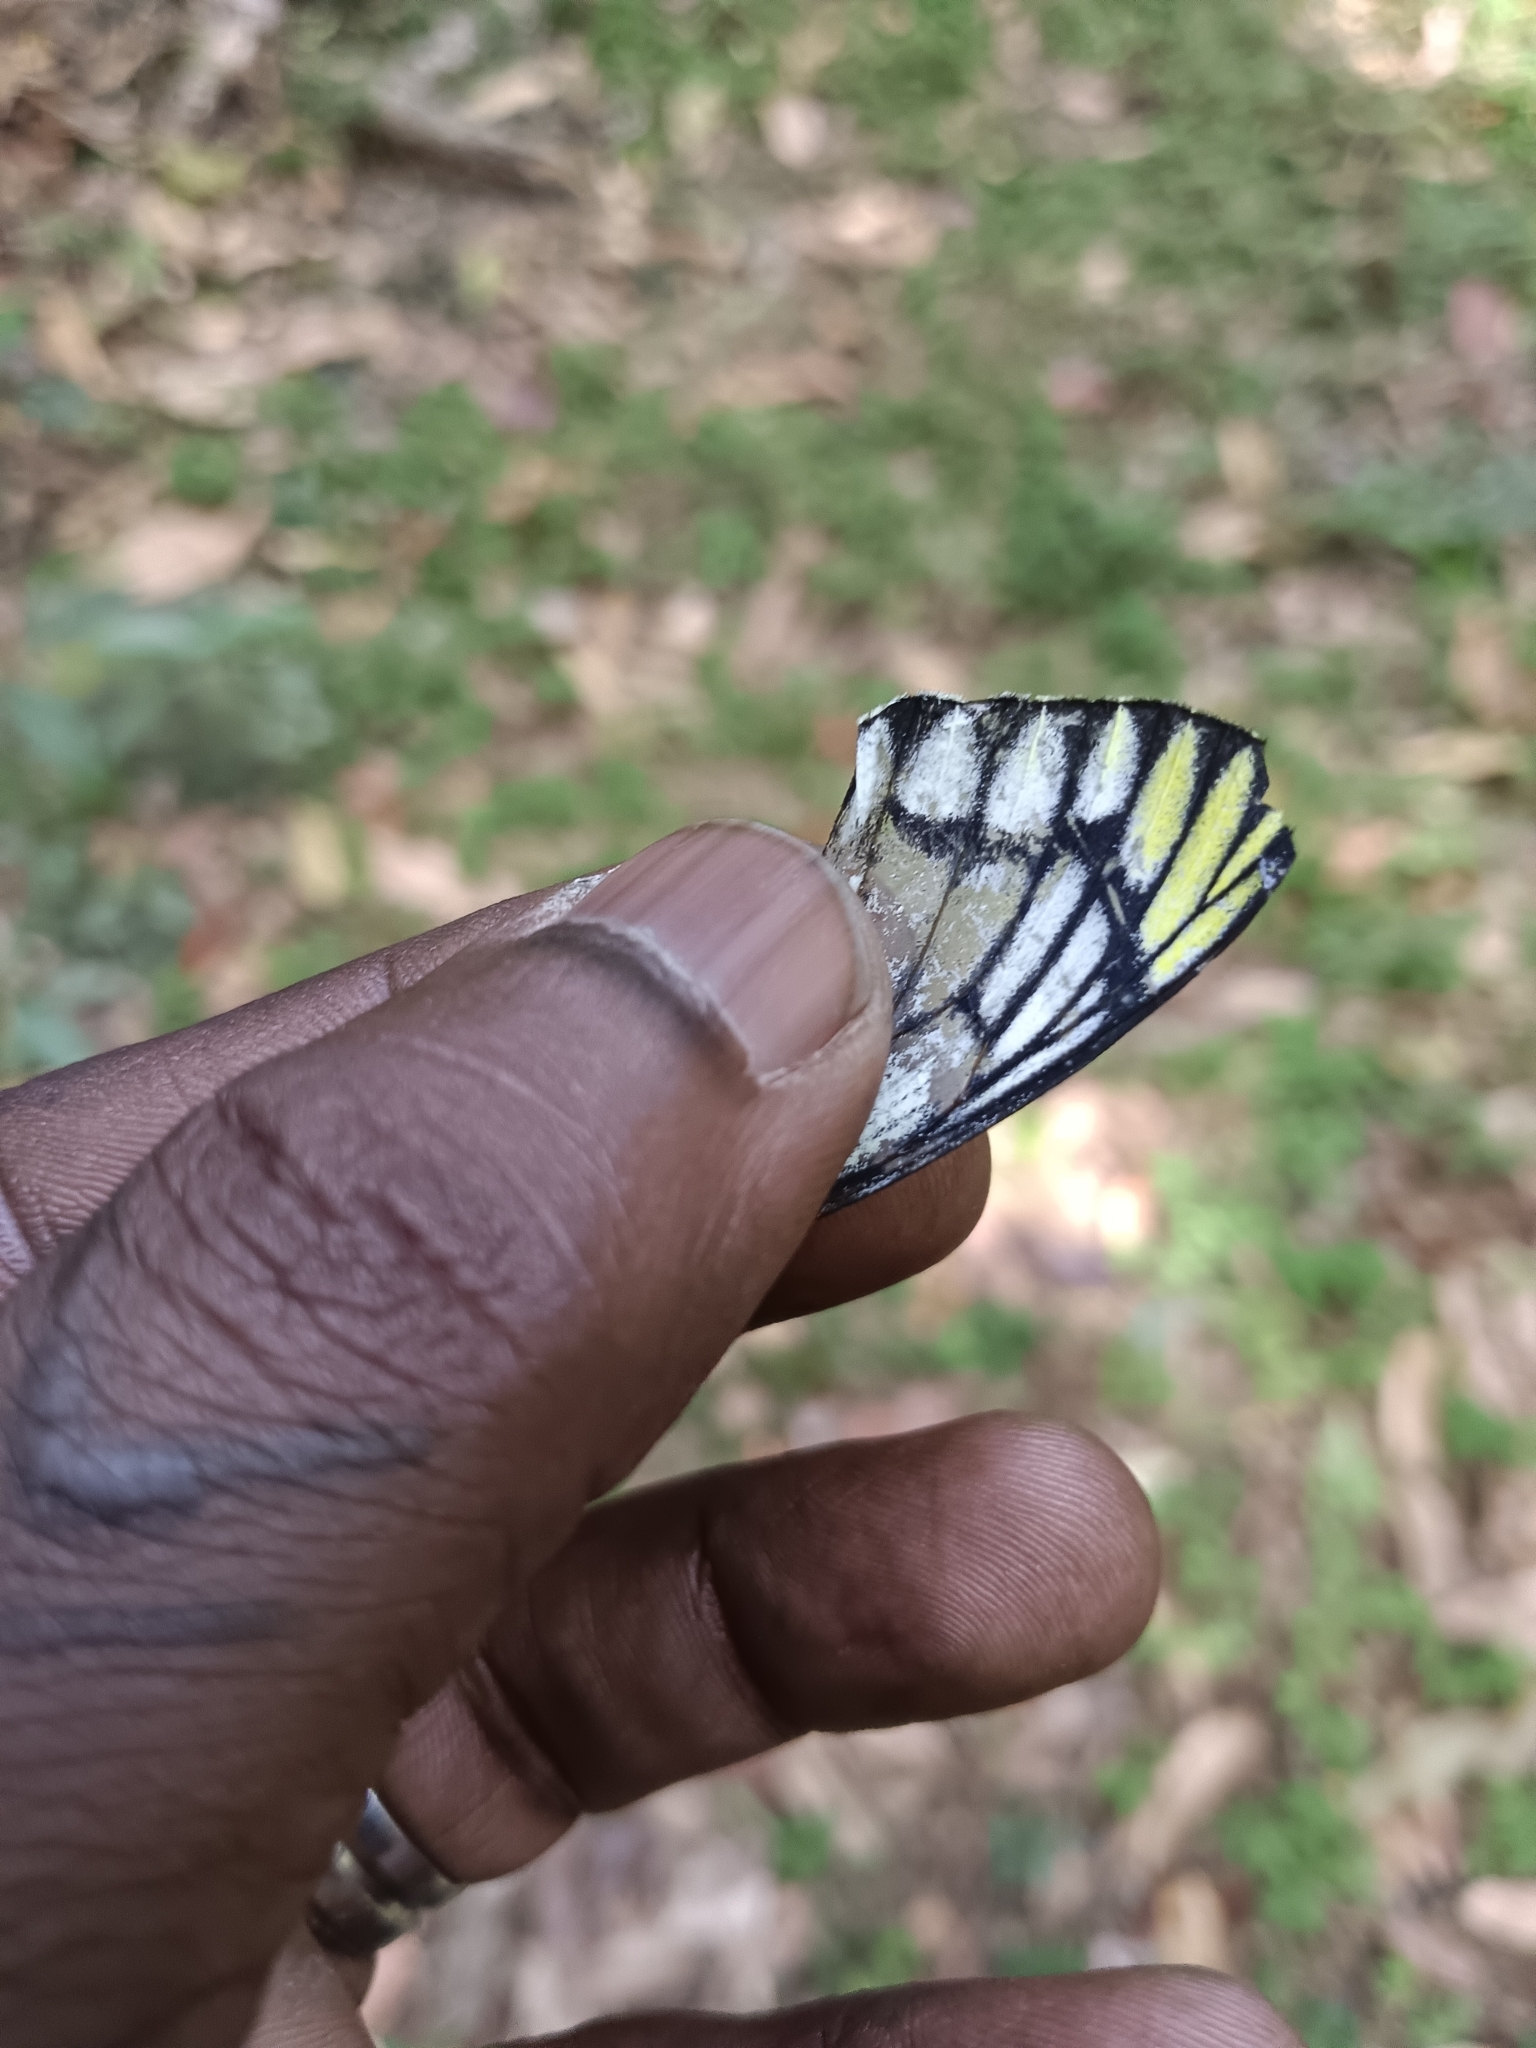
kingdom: Animalia
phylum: Arthropoda
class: Insecta
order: Lepidoptera
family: Pieridae
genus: Delias
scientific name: Delias eucharis
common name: Common jezebel
